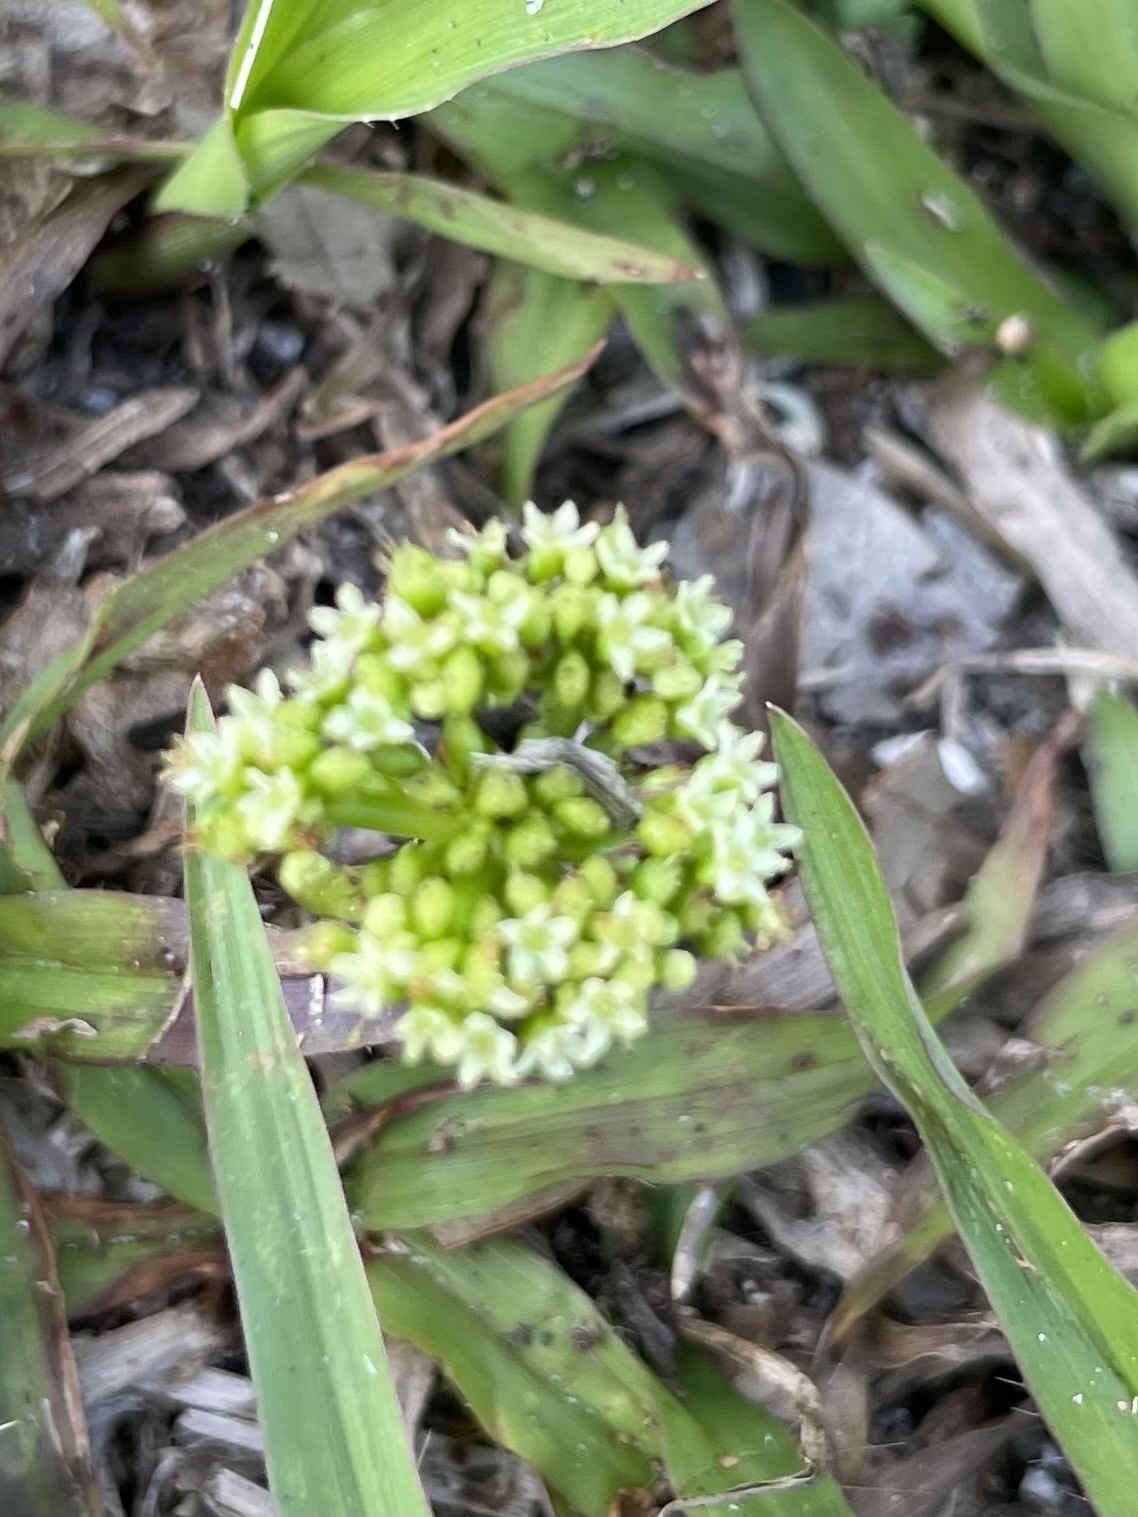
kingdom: Plantae
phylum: Tracheophyta
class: Magnoliopsida
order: Apiales
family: Araliaceae
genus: Hydrocotyle
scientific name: Hydrocotyle bonariensis
